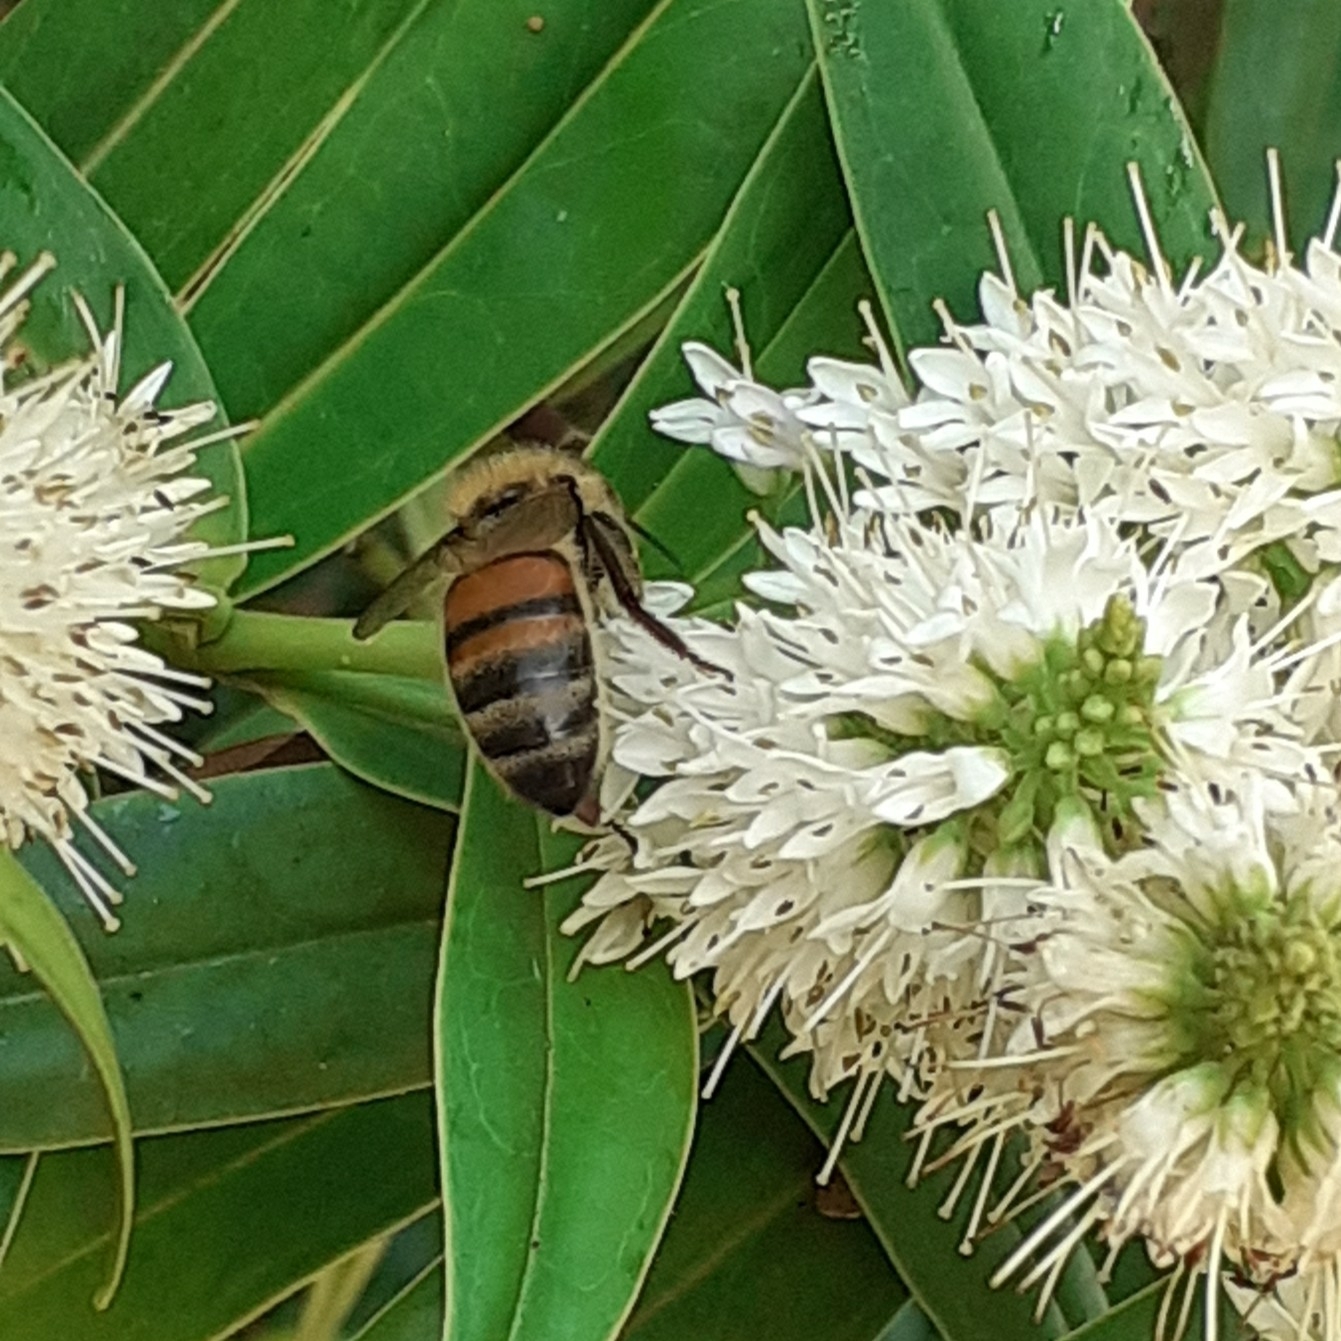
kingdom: Animalia
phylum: Arthropoda
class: Insecta
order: Hymenoptera
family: Apidae
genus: Apis
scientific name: Apis mellifera
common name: Honey bee
